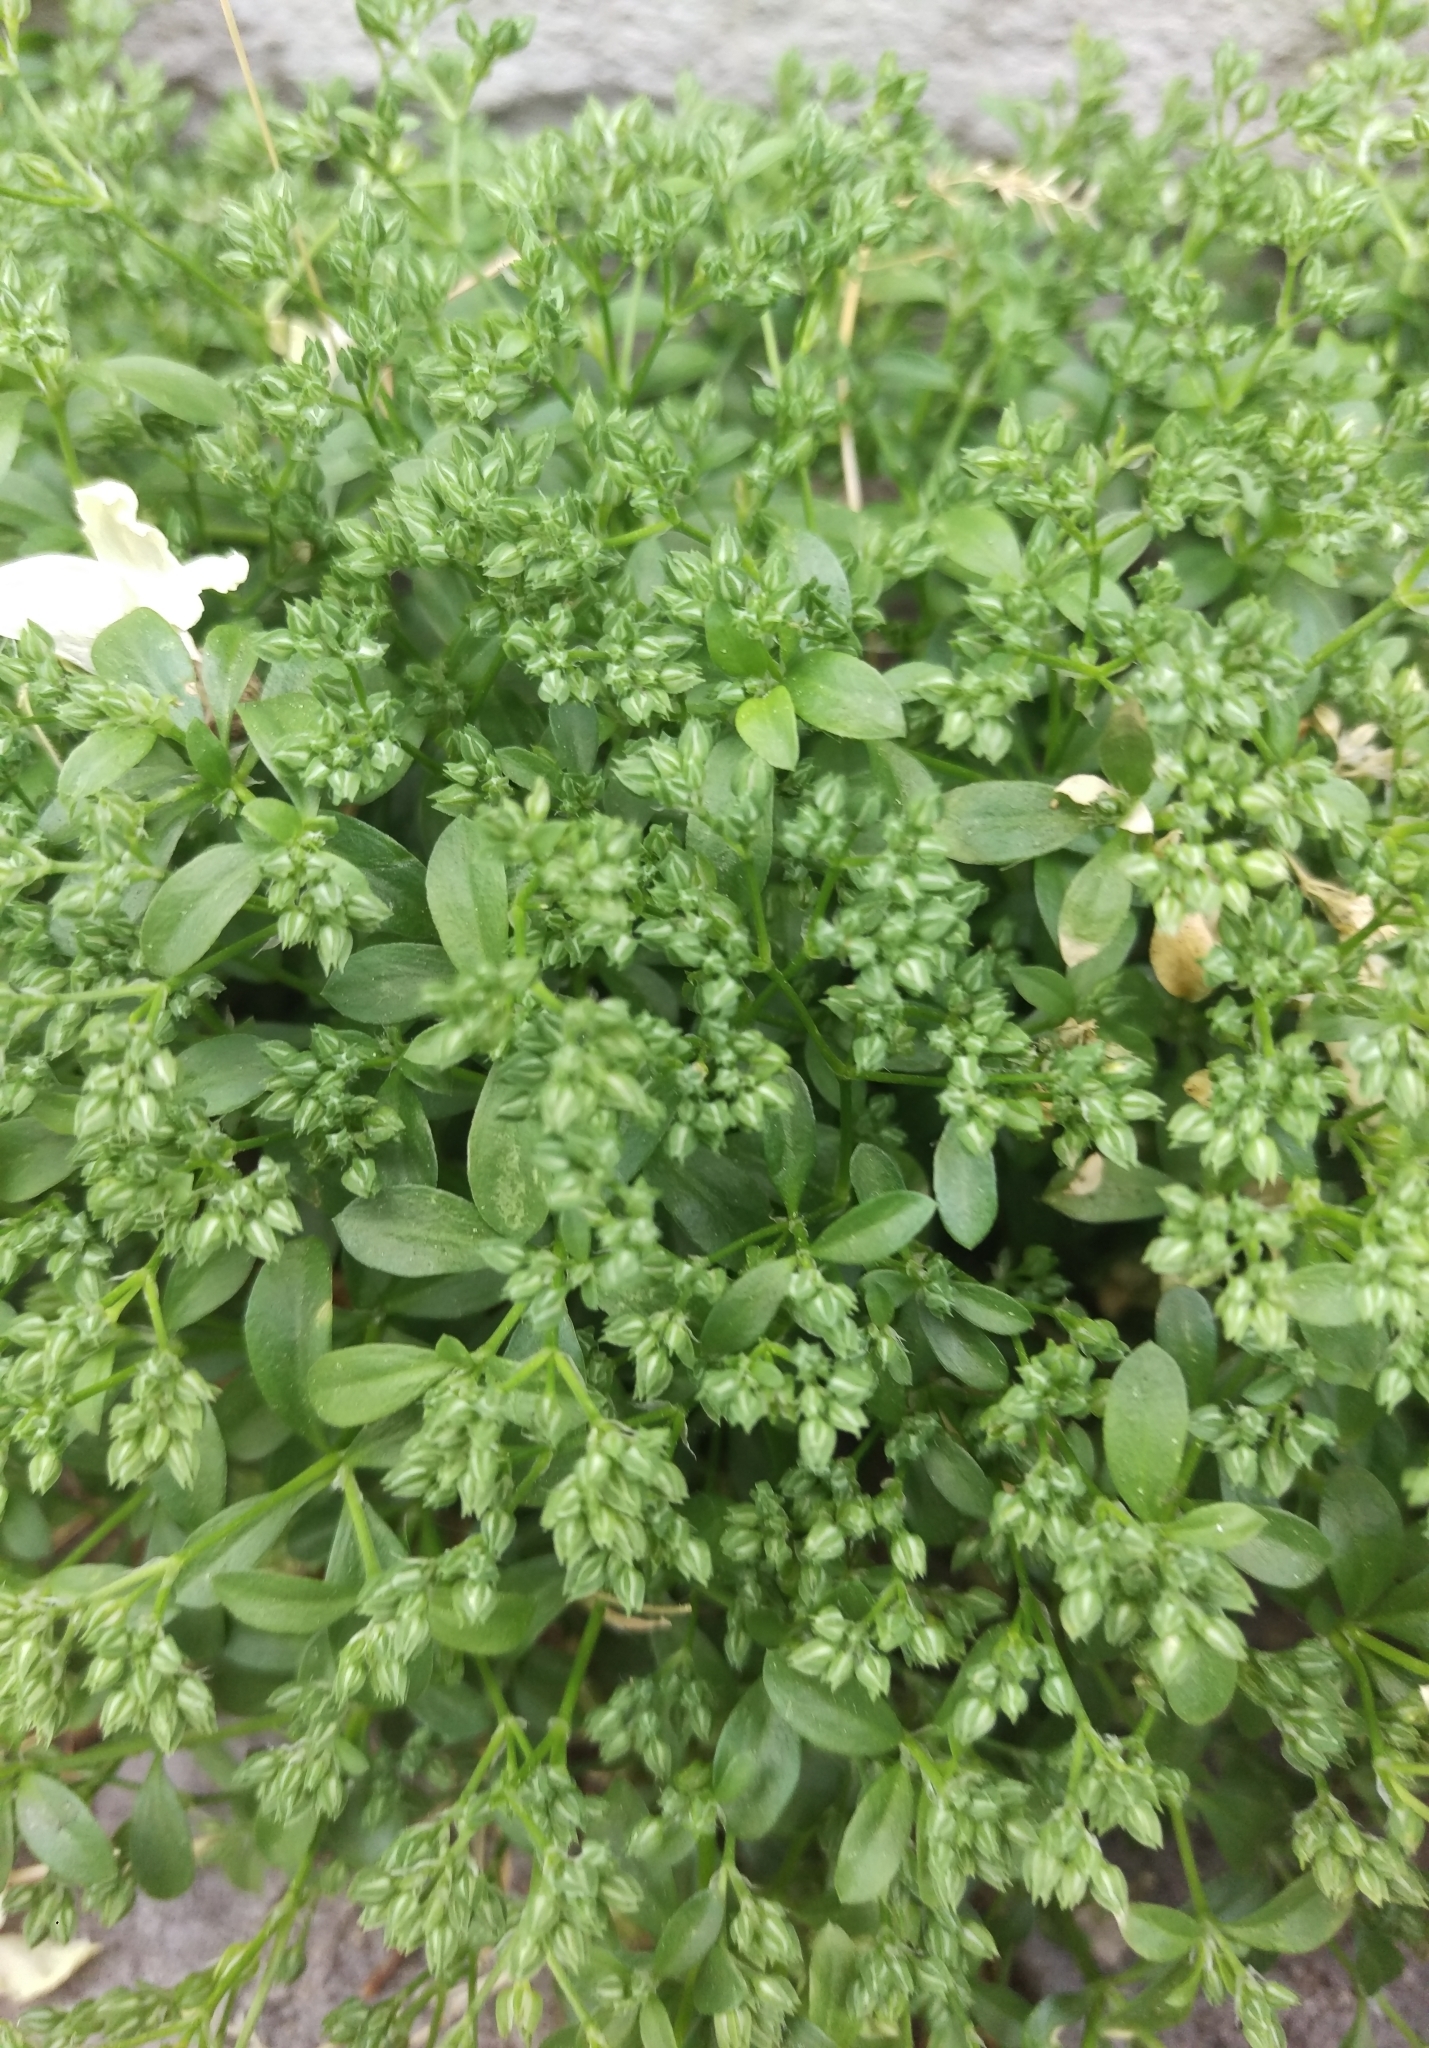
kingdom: Plantae
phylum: Tracheophyta
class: Magnoliopsida
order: Caryophyllales
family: Caryophyllaceae
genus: Polycarpon
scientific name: Polycarpon tetraphyllum
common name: Four-leaved all-seed
